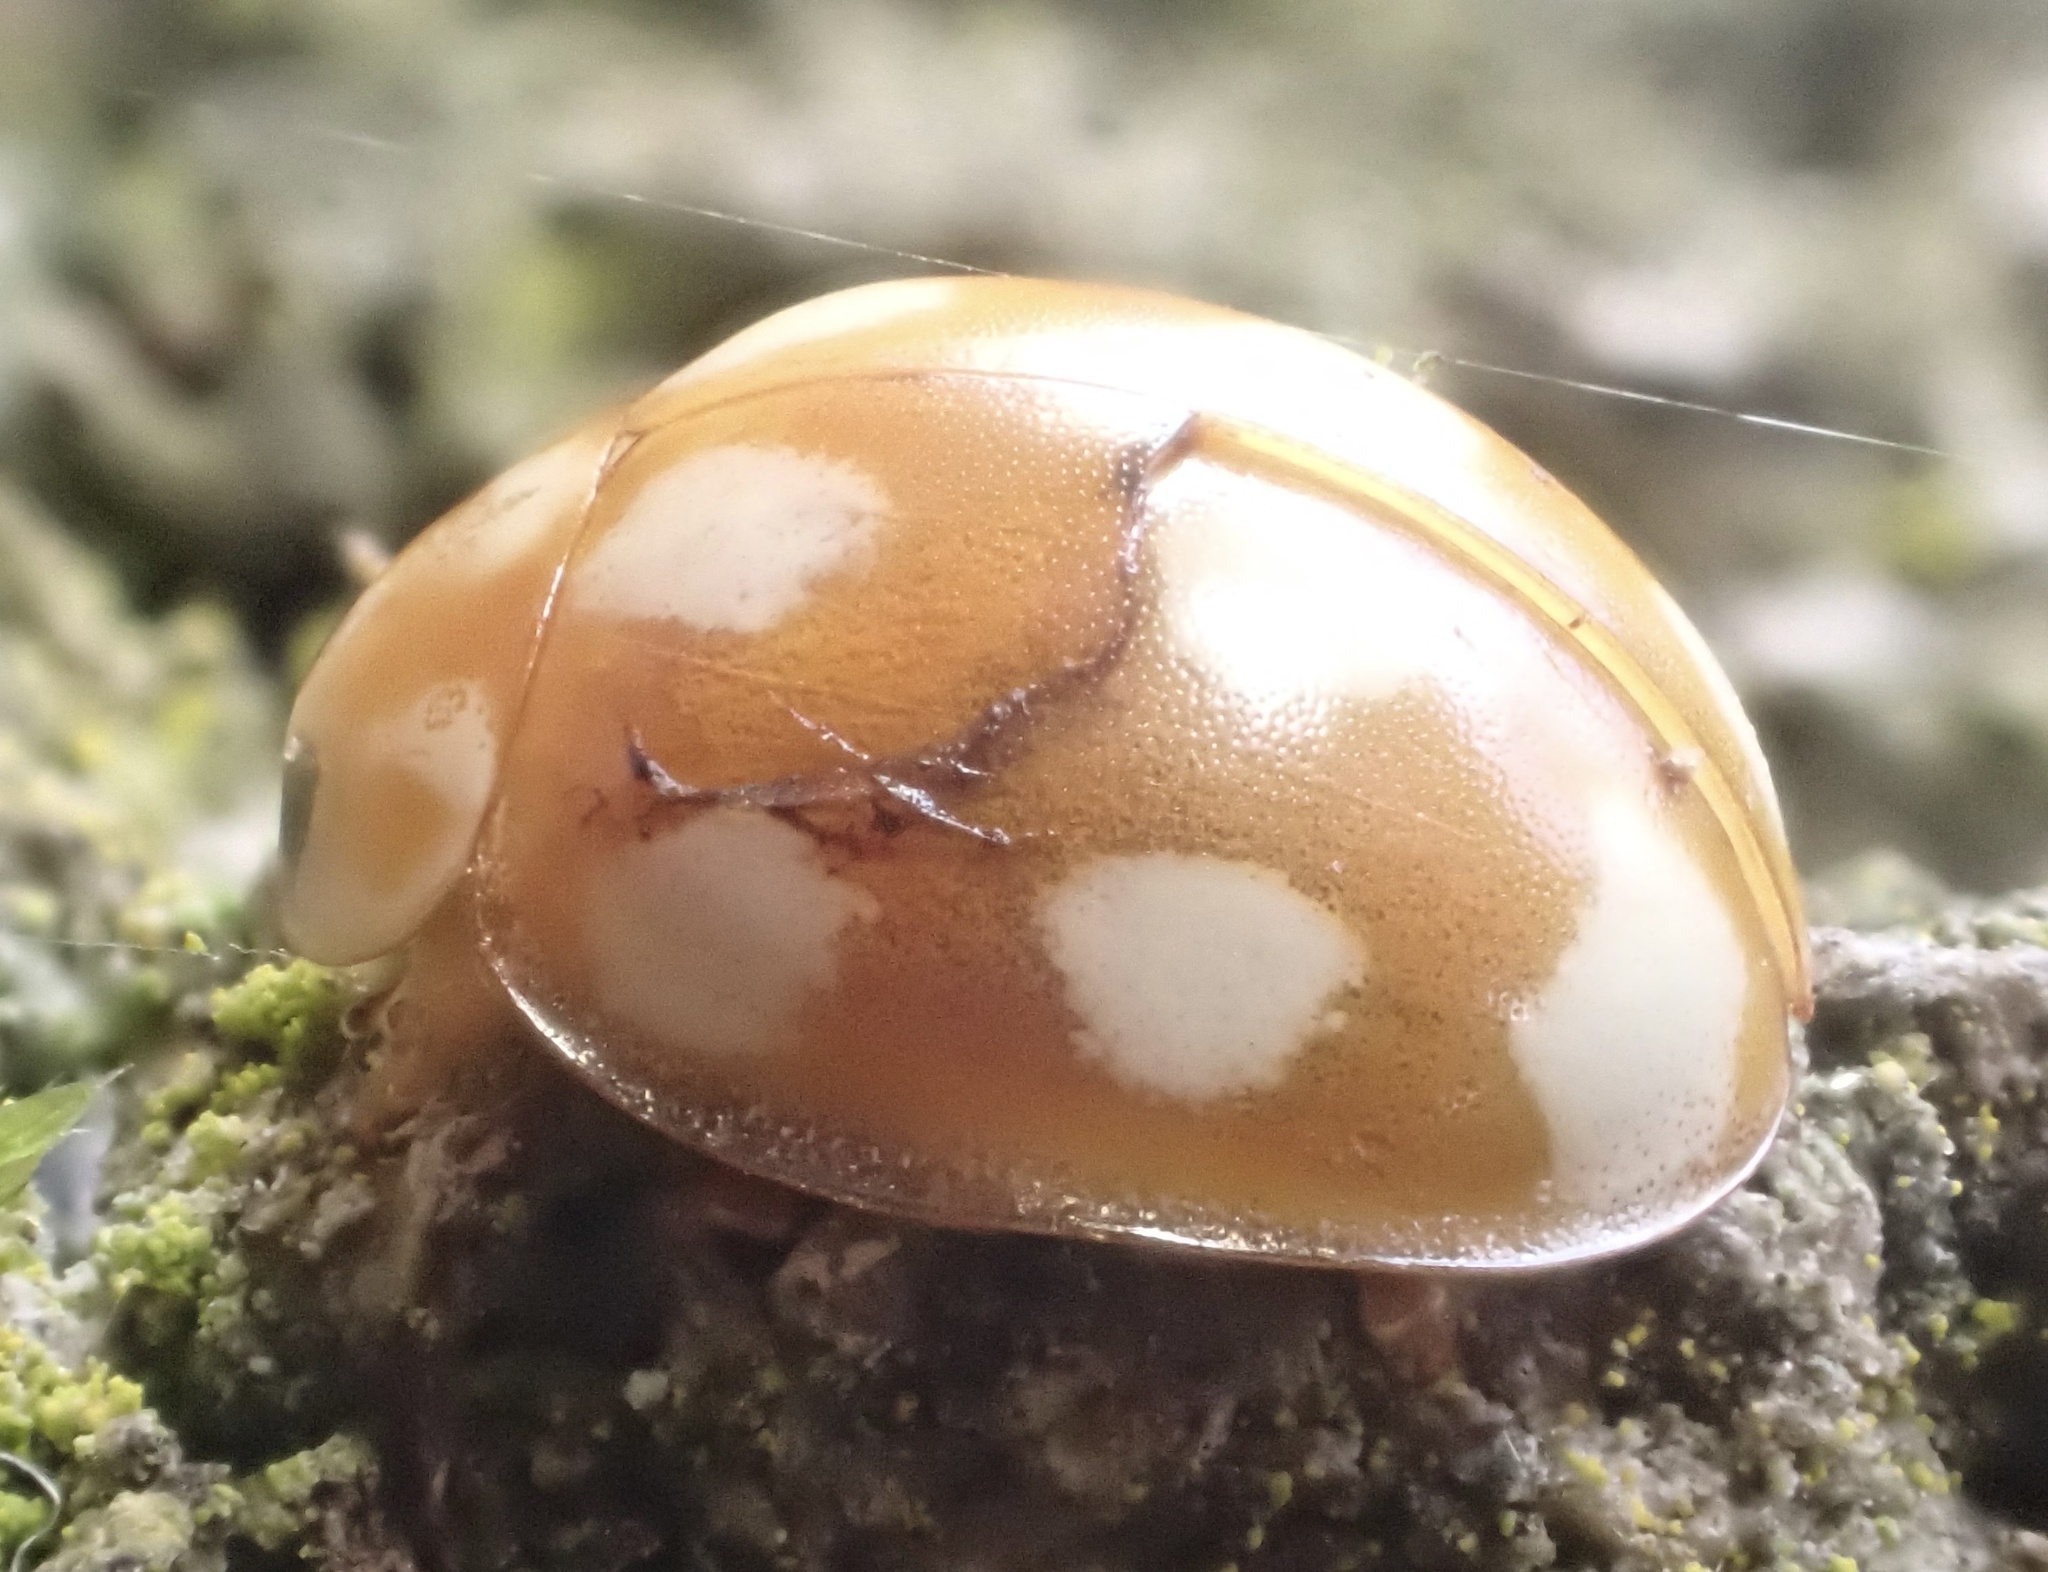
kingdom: Animalia
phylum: Arthropoda
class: Insecta
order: Coleoptera
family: Coccinellidae
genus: Calvia
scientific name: Calvia decemguttata
